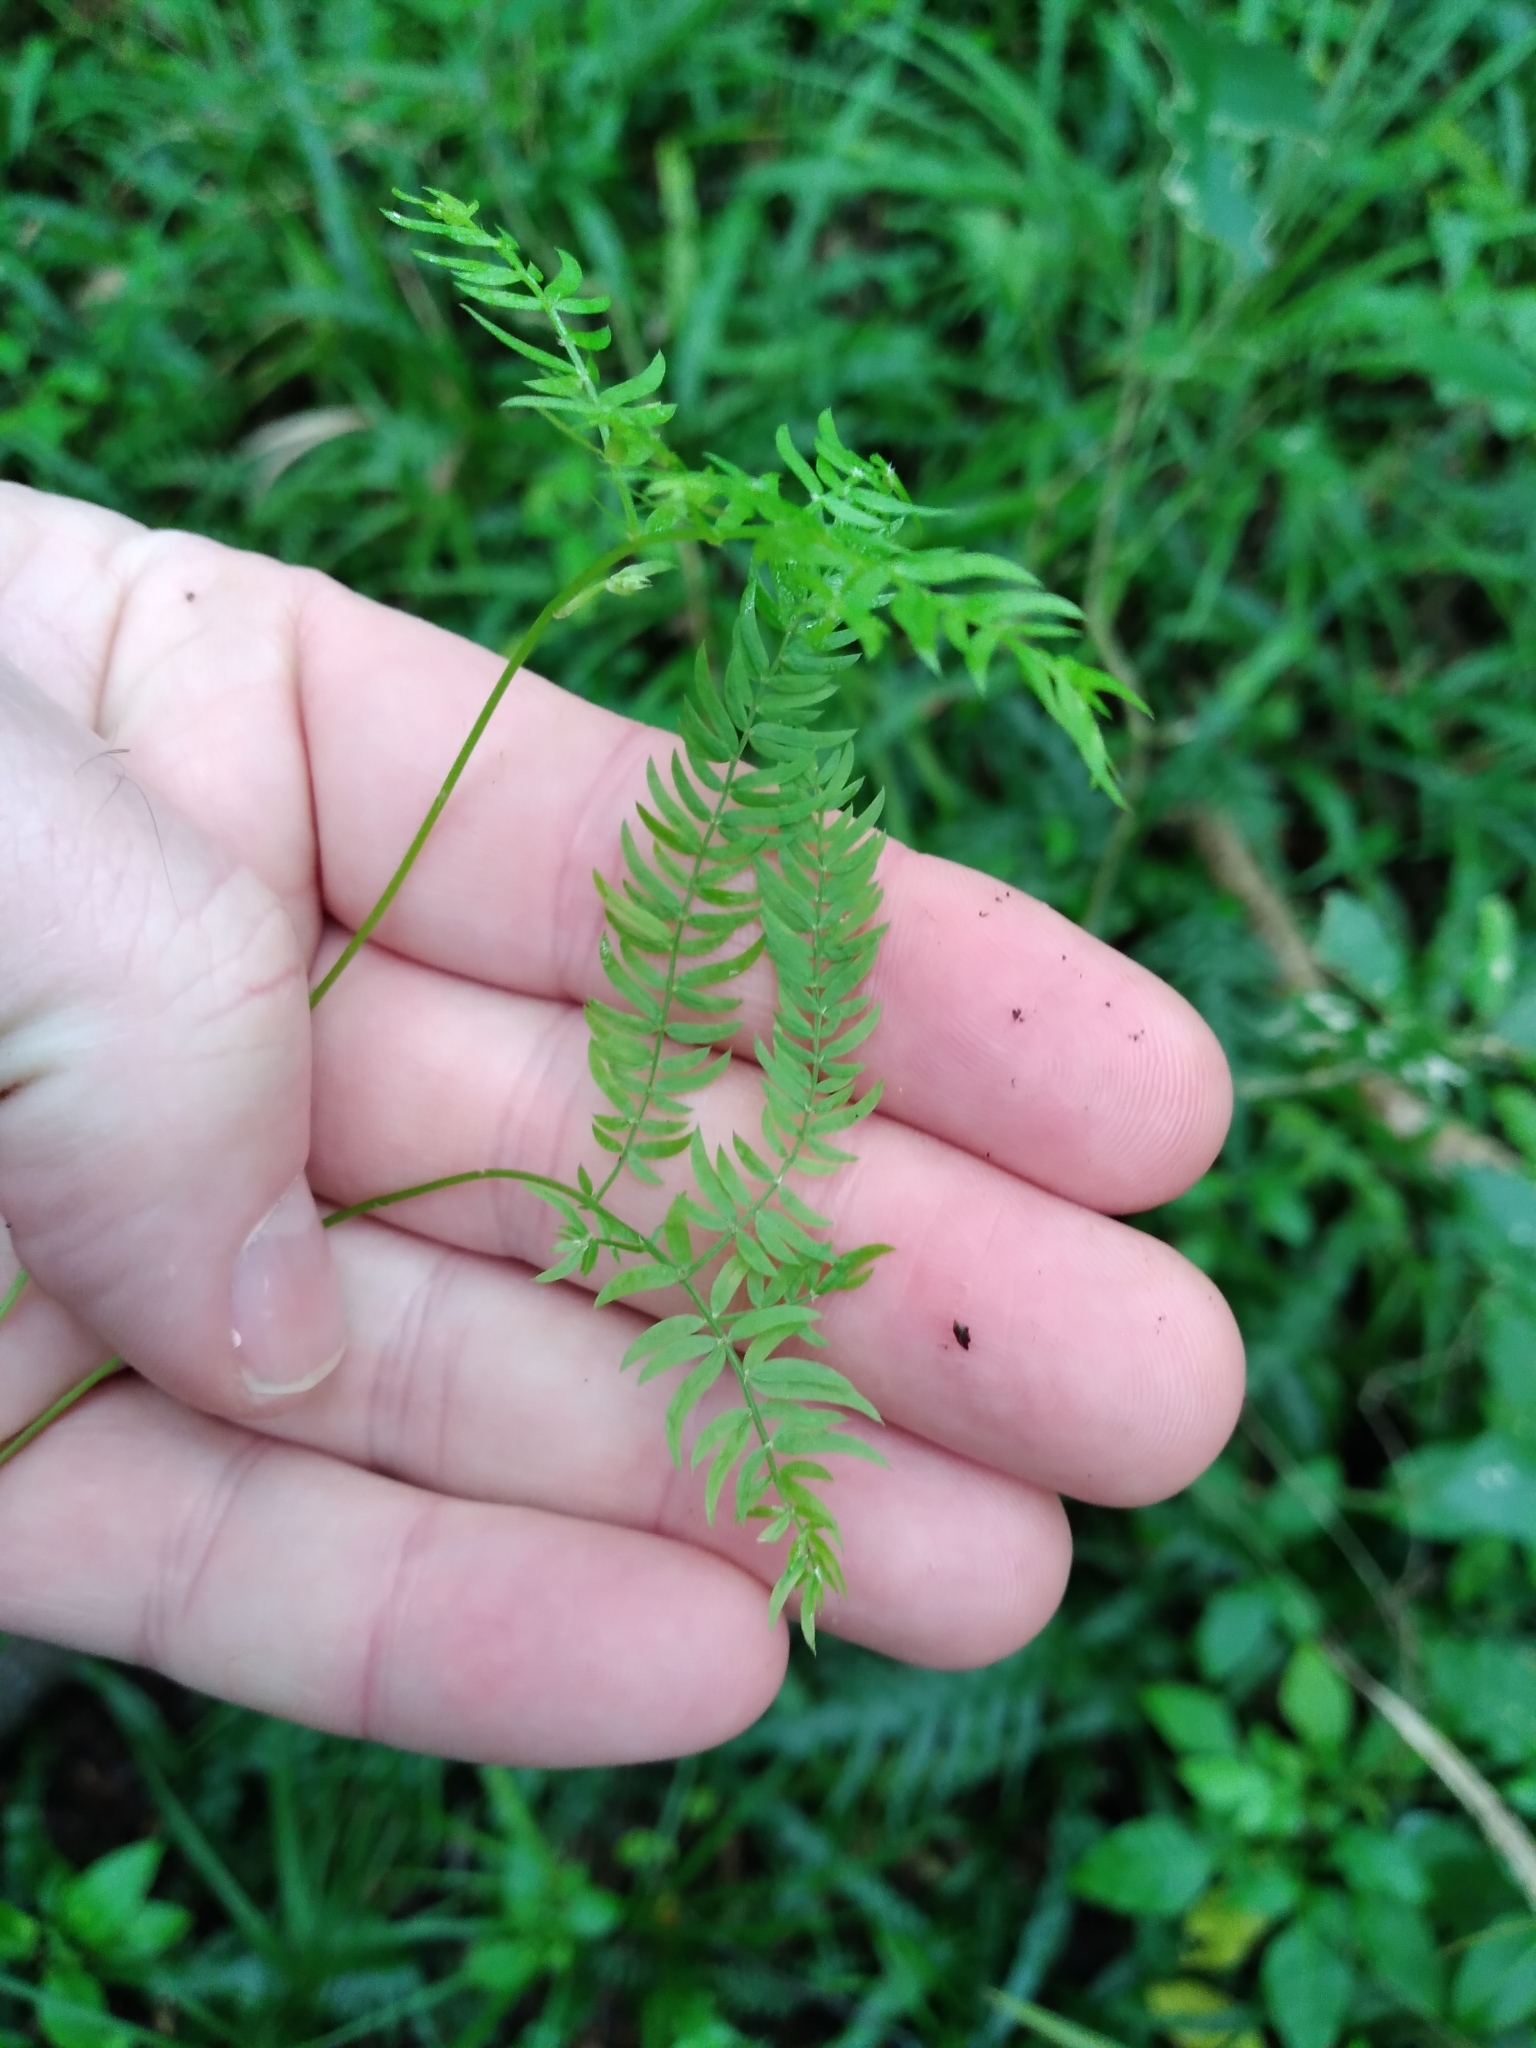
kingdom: Plantae
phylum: Tracheophyta
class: Liliopsida
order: Asparagales
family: Asparagaceae
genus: Asparagus
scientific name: Asparagus scandens
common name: Asparagus-fern
